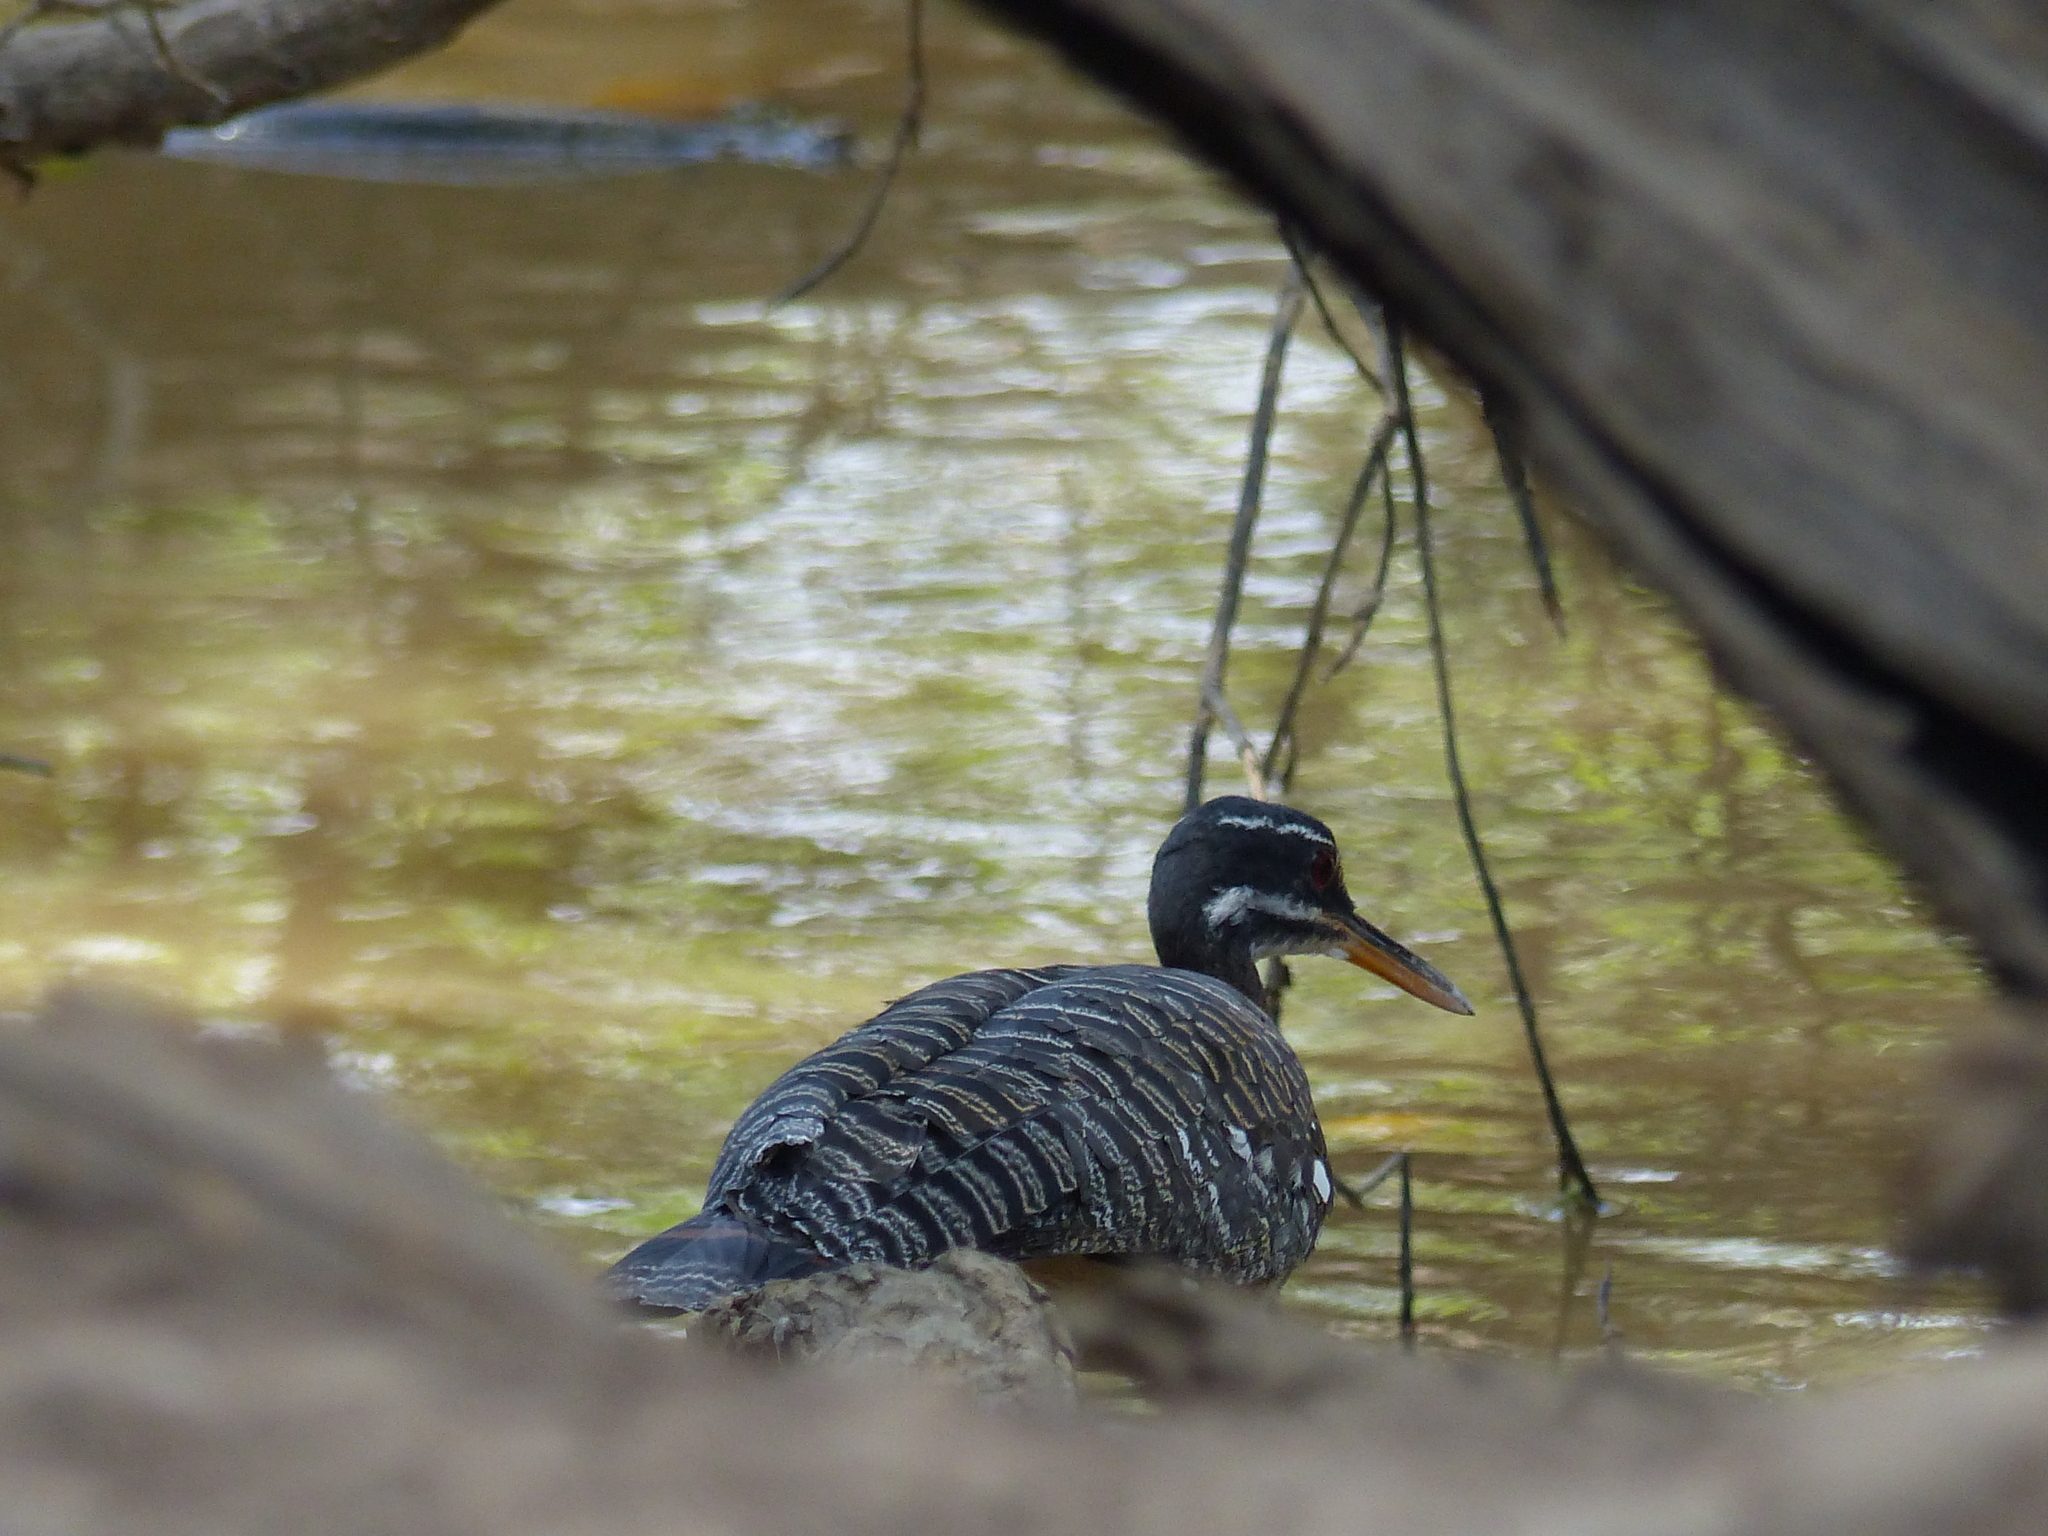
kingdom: Animalia
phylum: Chordata
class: Aves
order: Eurypygiformes
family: Eurypygidae
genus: Eurypyga
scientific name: Eurypyga helias
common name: Sunbittern
